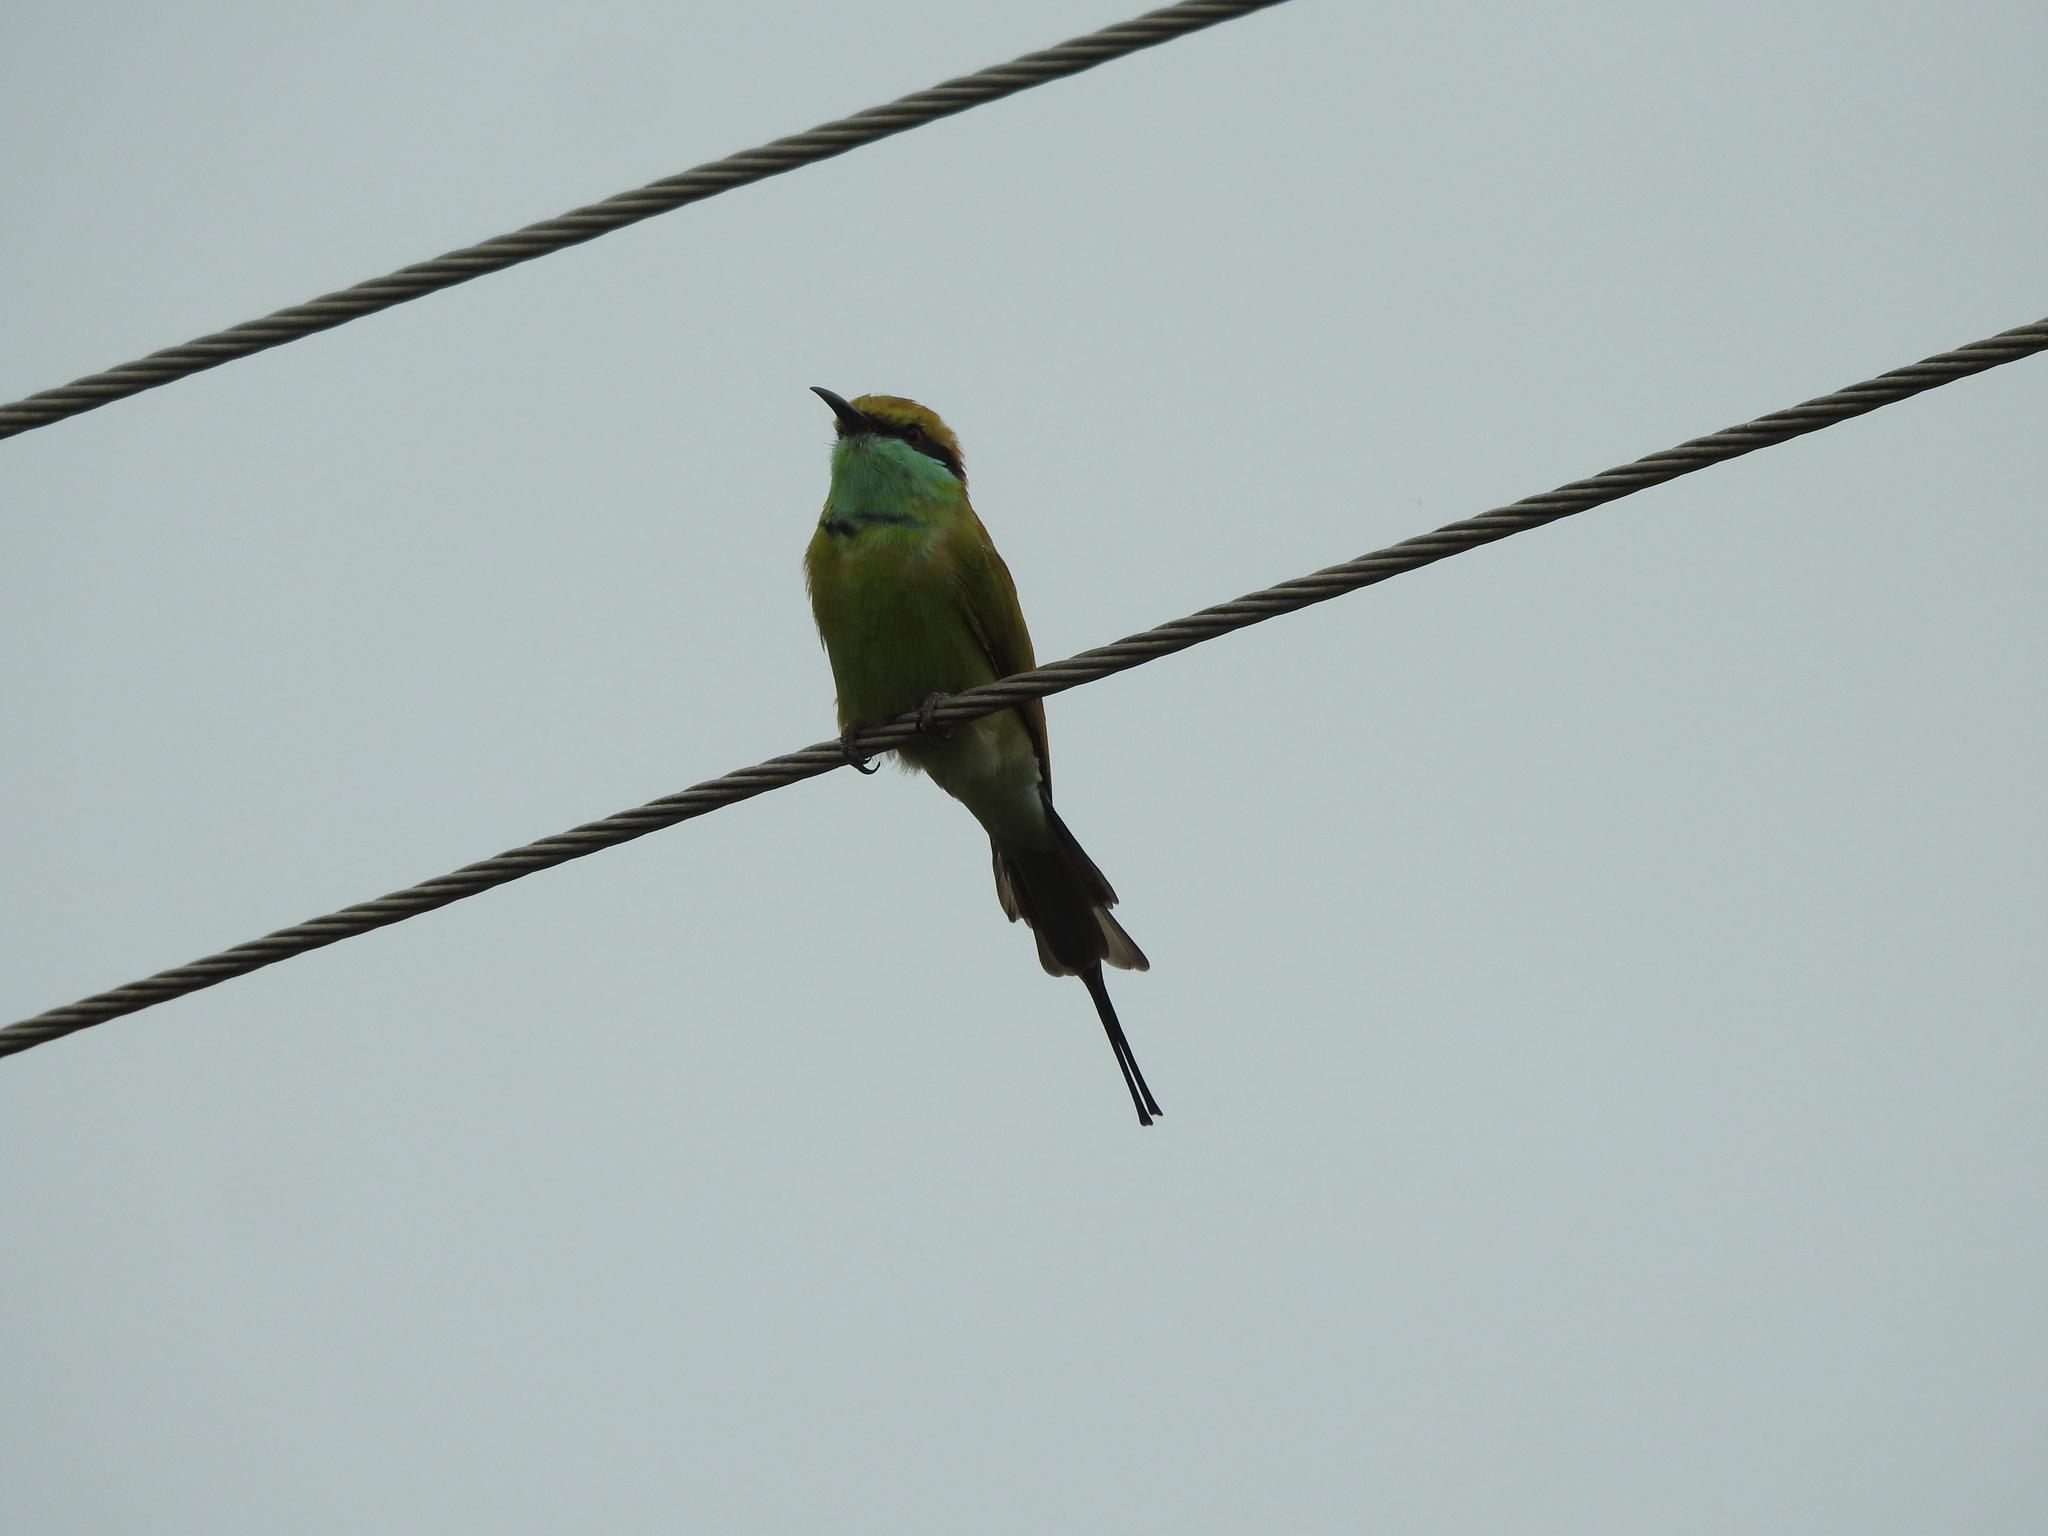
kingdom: Animalia
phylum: Chordata
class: Aves
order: Coraciiformes
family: Meropidae
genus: Merops
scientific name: Merops orientalis
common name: Green bee-eater
